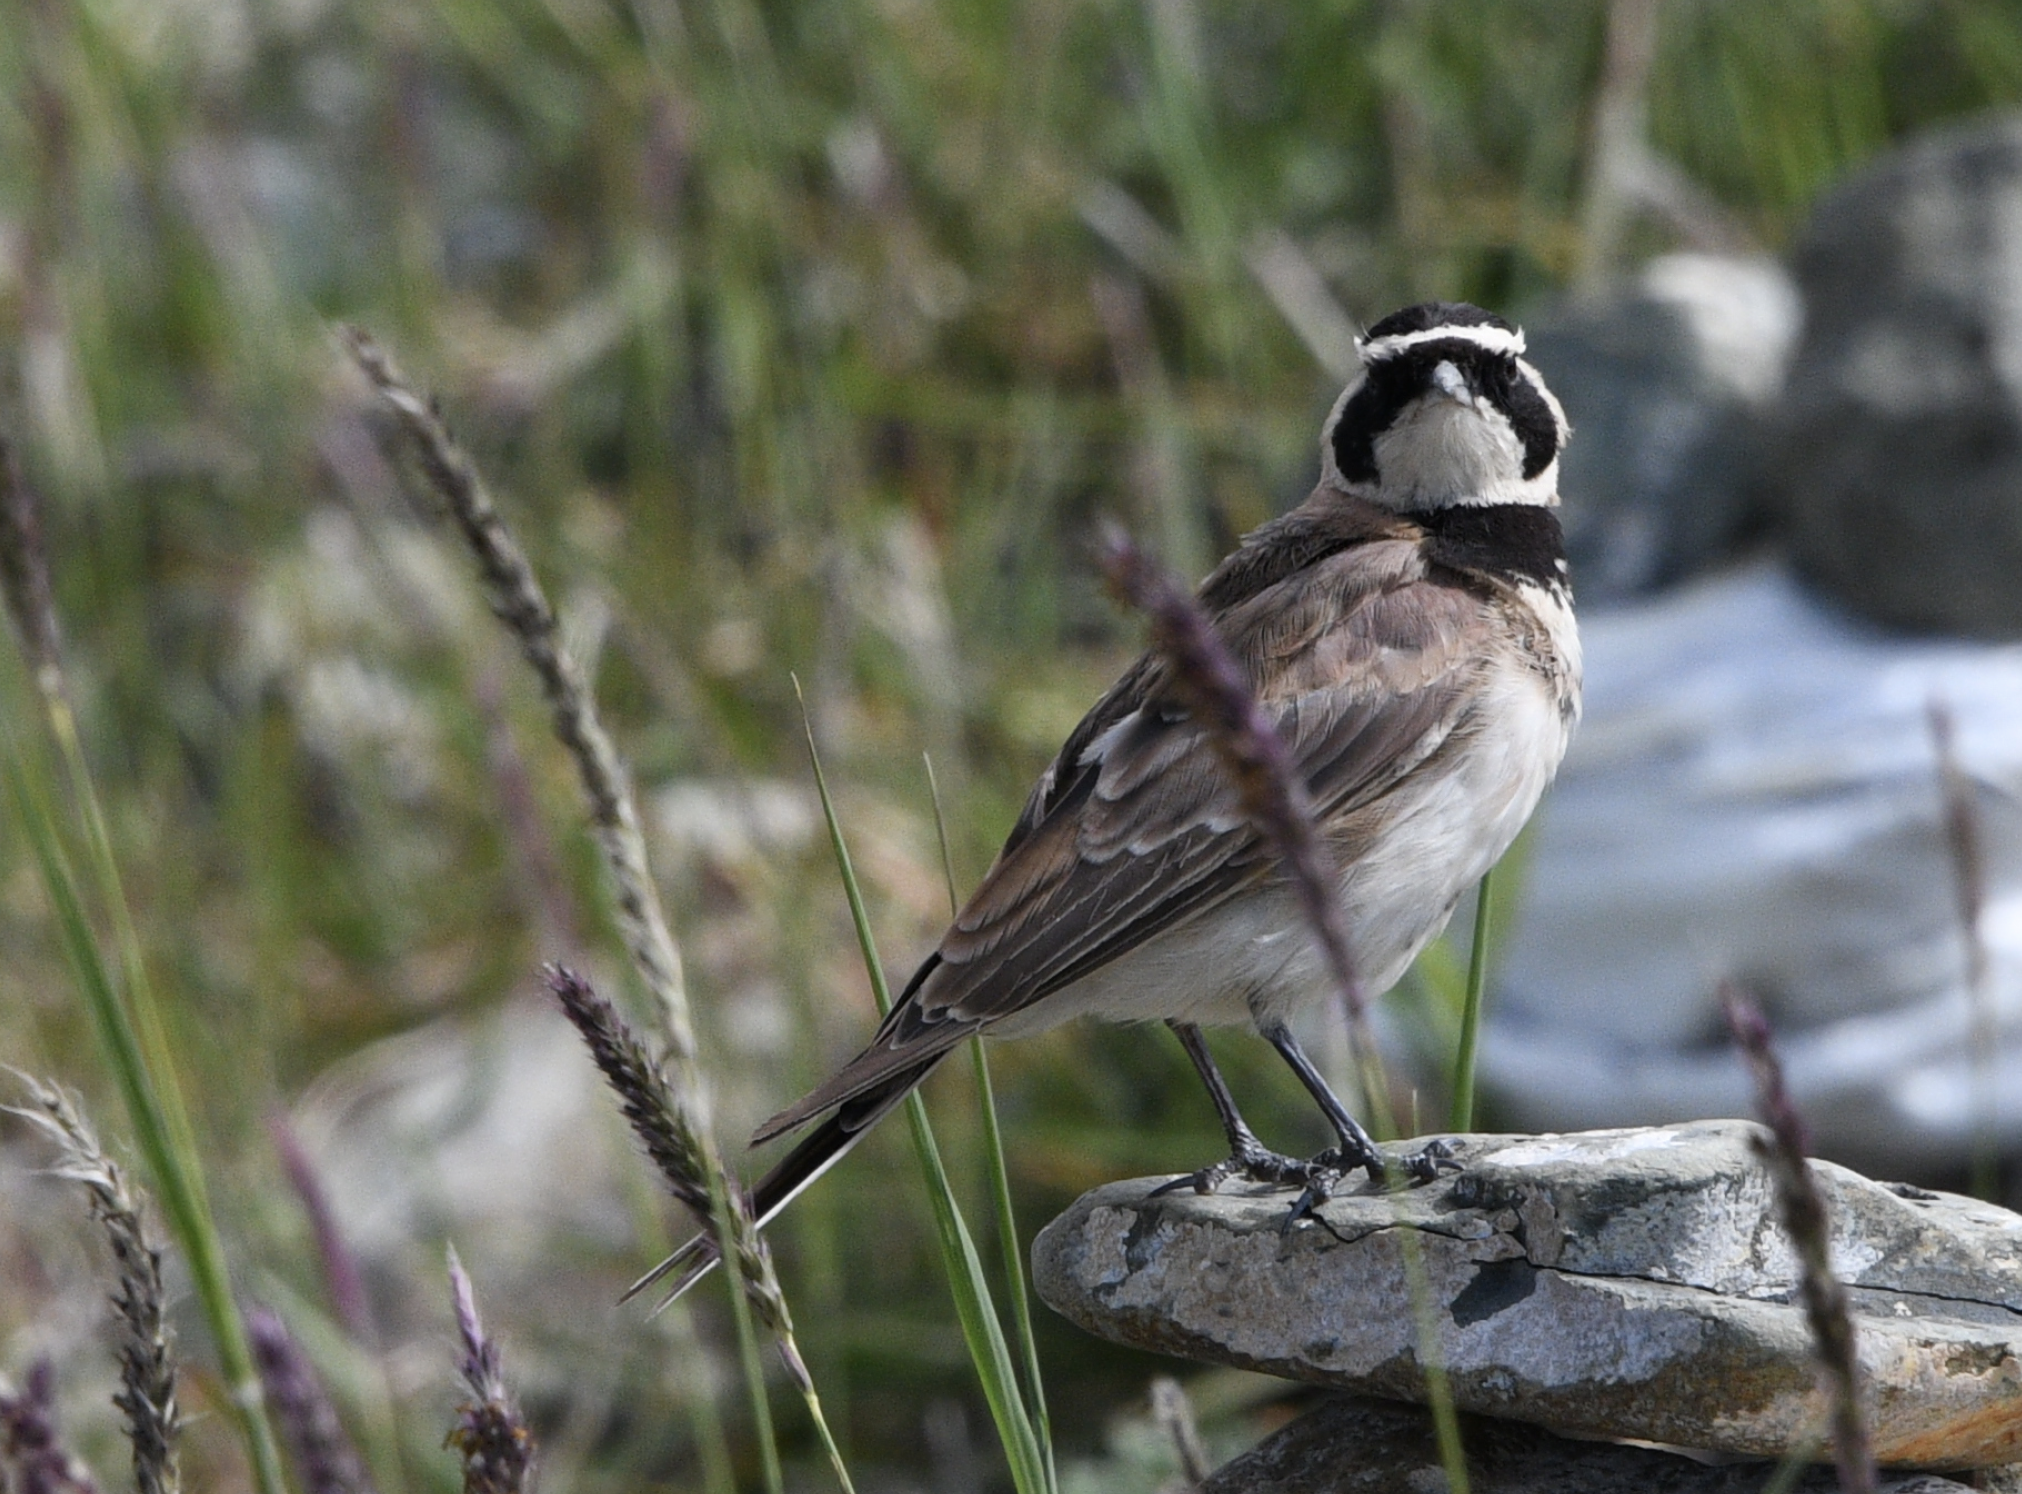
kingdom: Animalia
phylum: Chordata
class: Aves
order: Passeriformes
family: Alaudidae
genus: Eremophila
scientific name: Eremophila alpestris
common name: Horned lark
